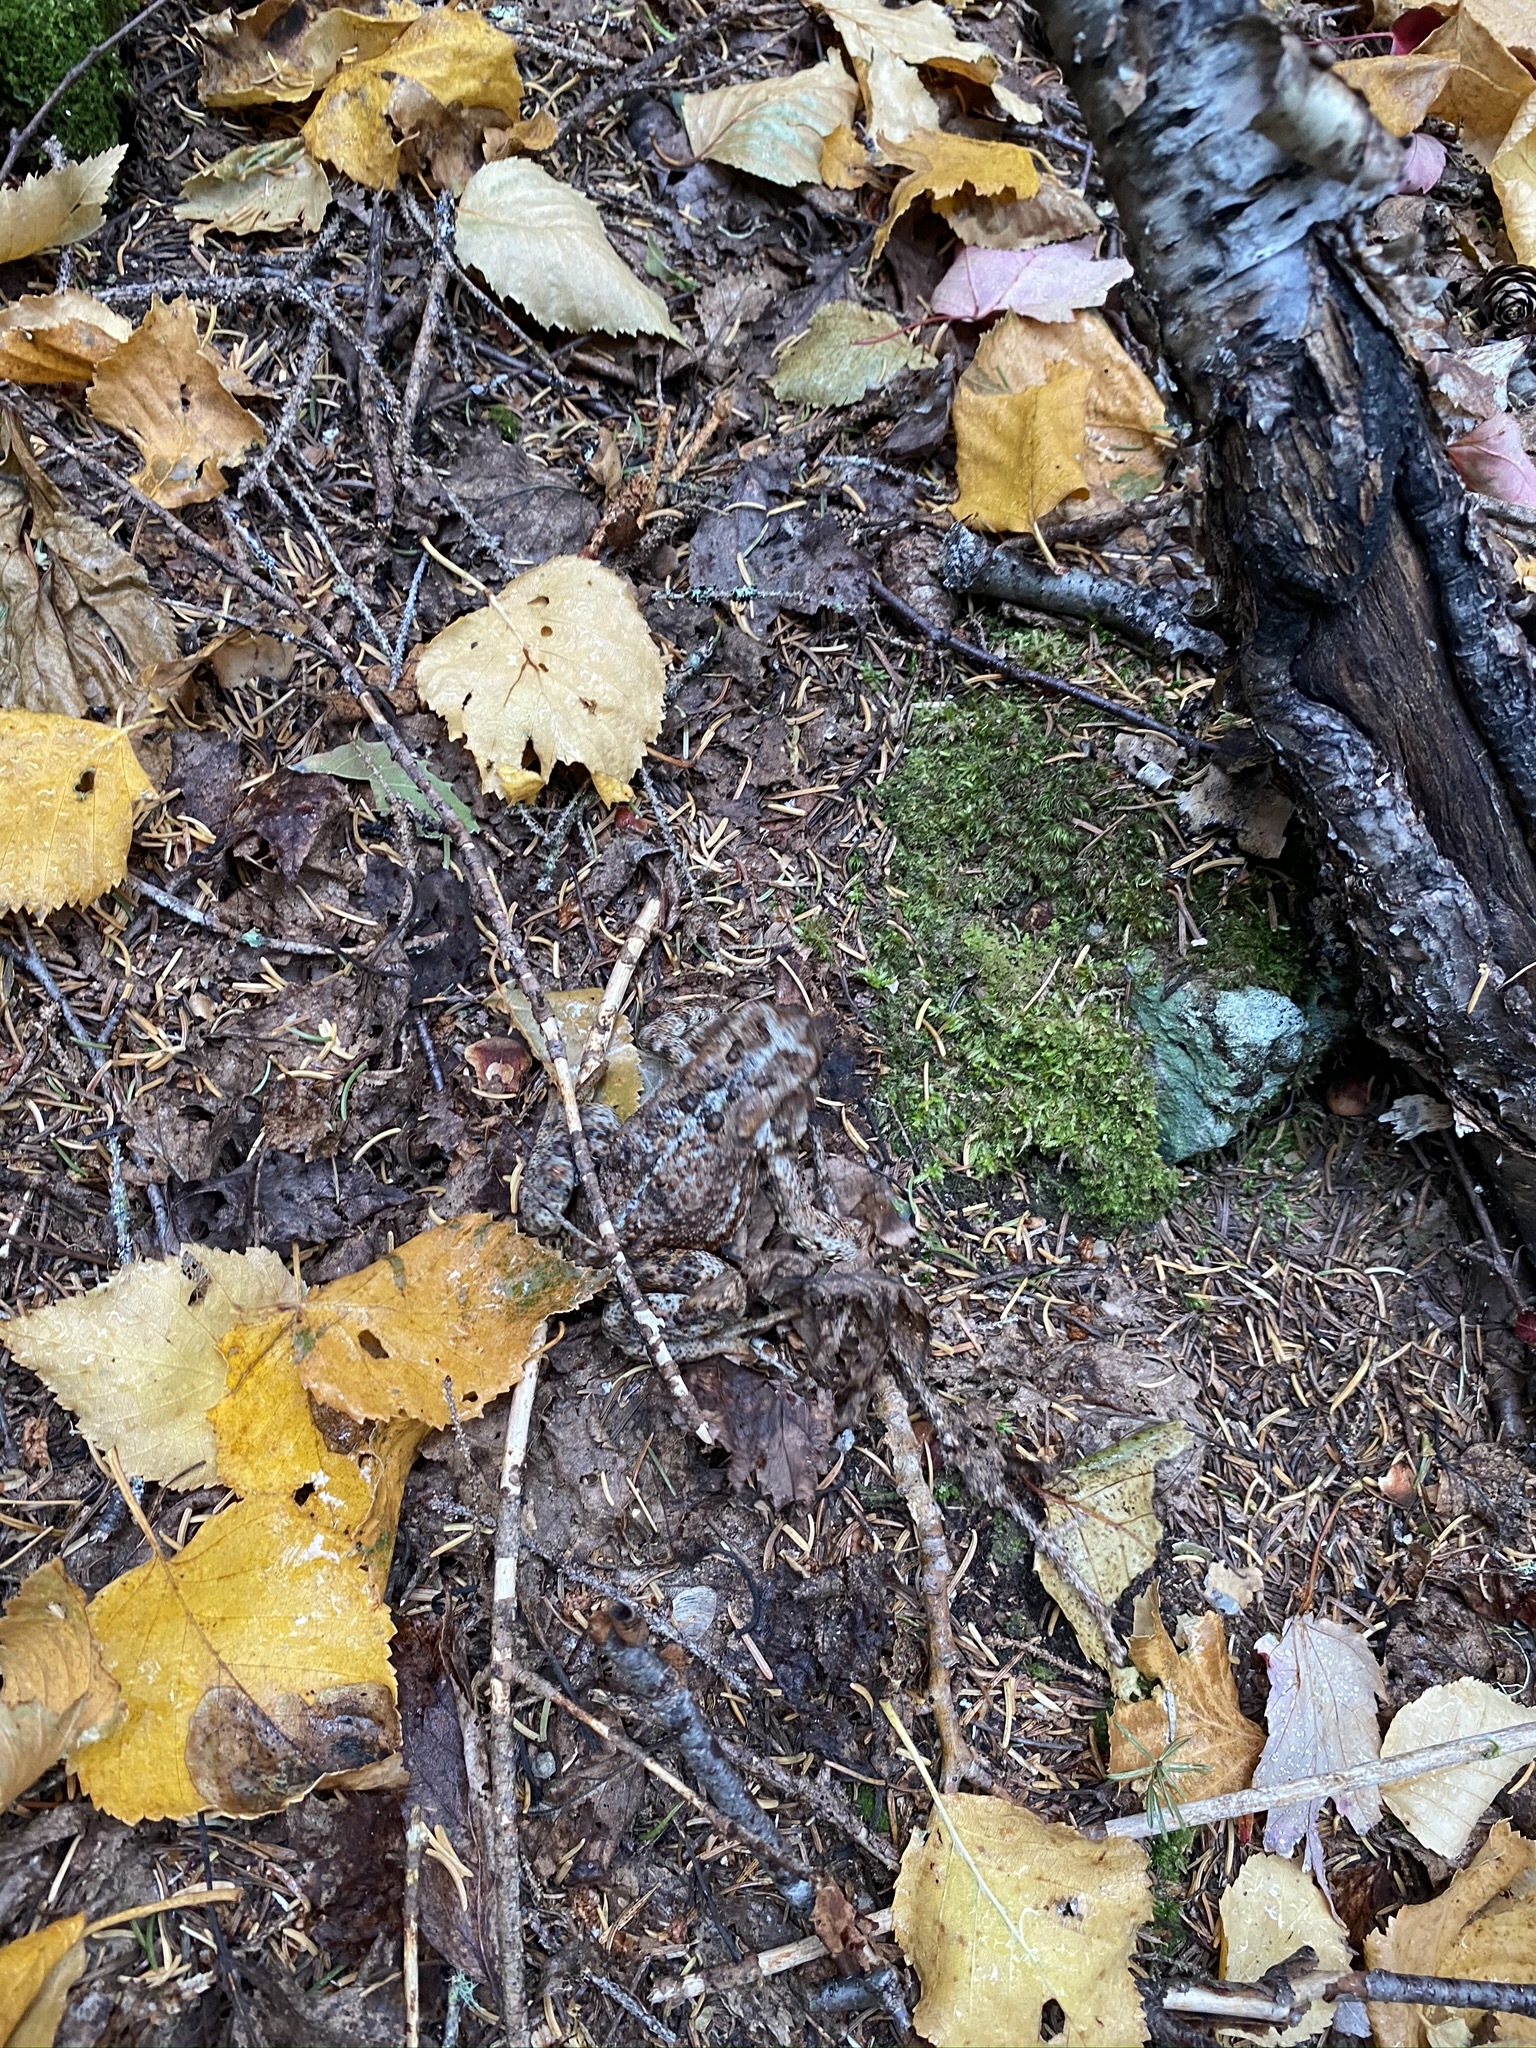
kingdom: Animalia
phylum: Chordata
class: Amphibia
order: Anura
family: Bufonidae
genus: Anaxyrus
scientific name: Anaxyrus americanus
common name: American toad
